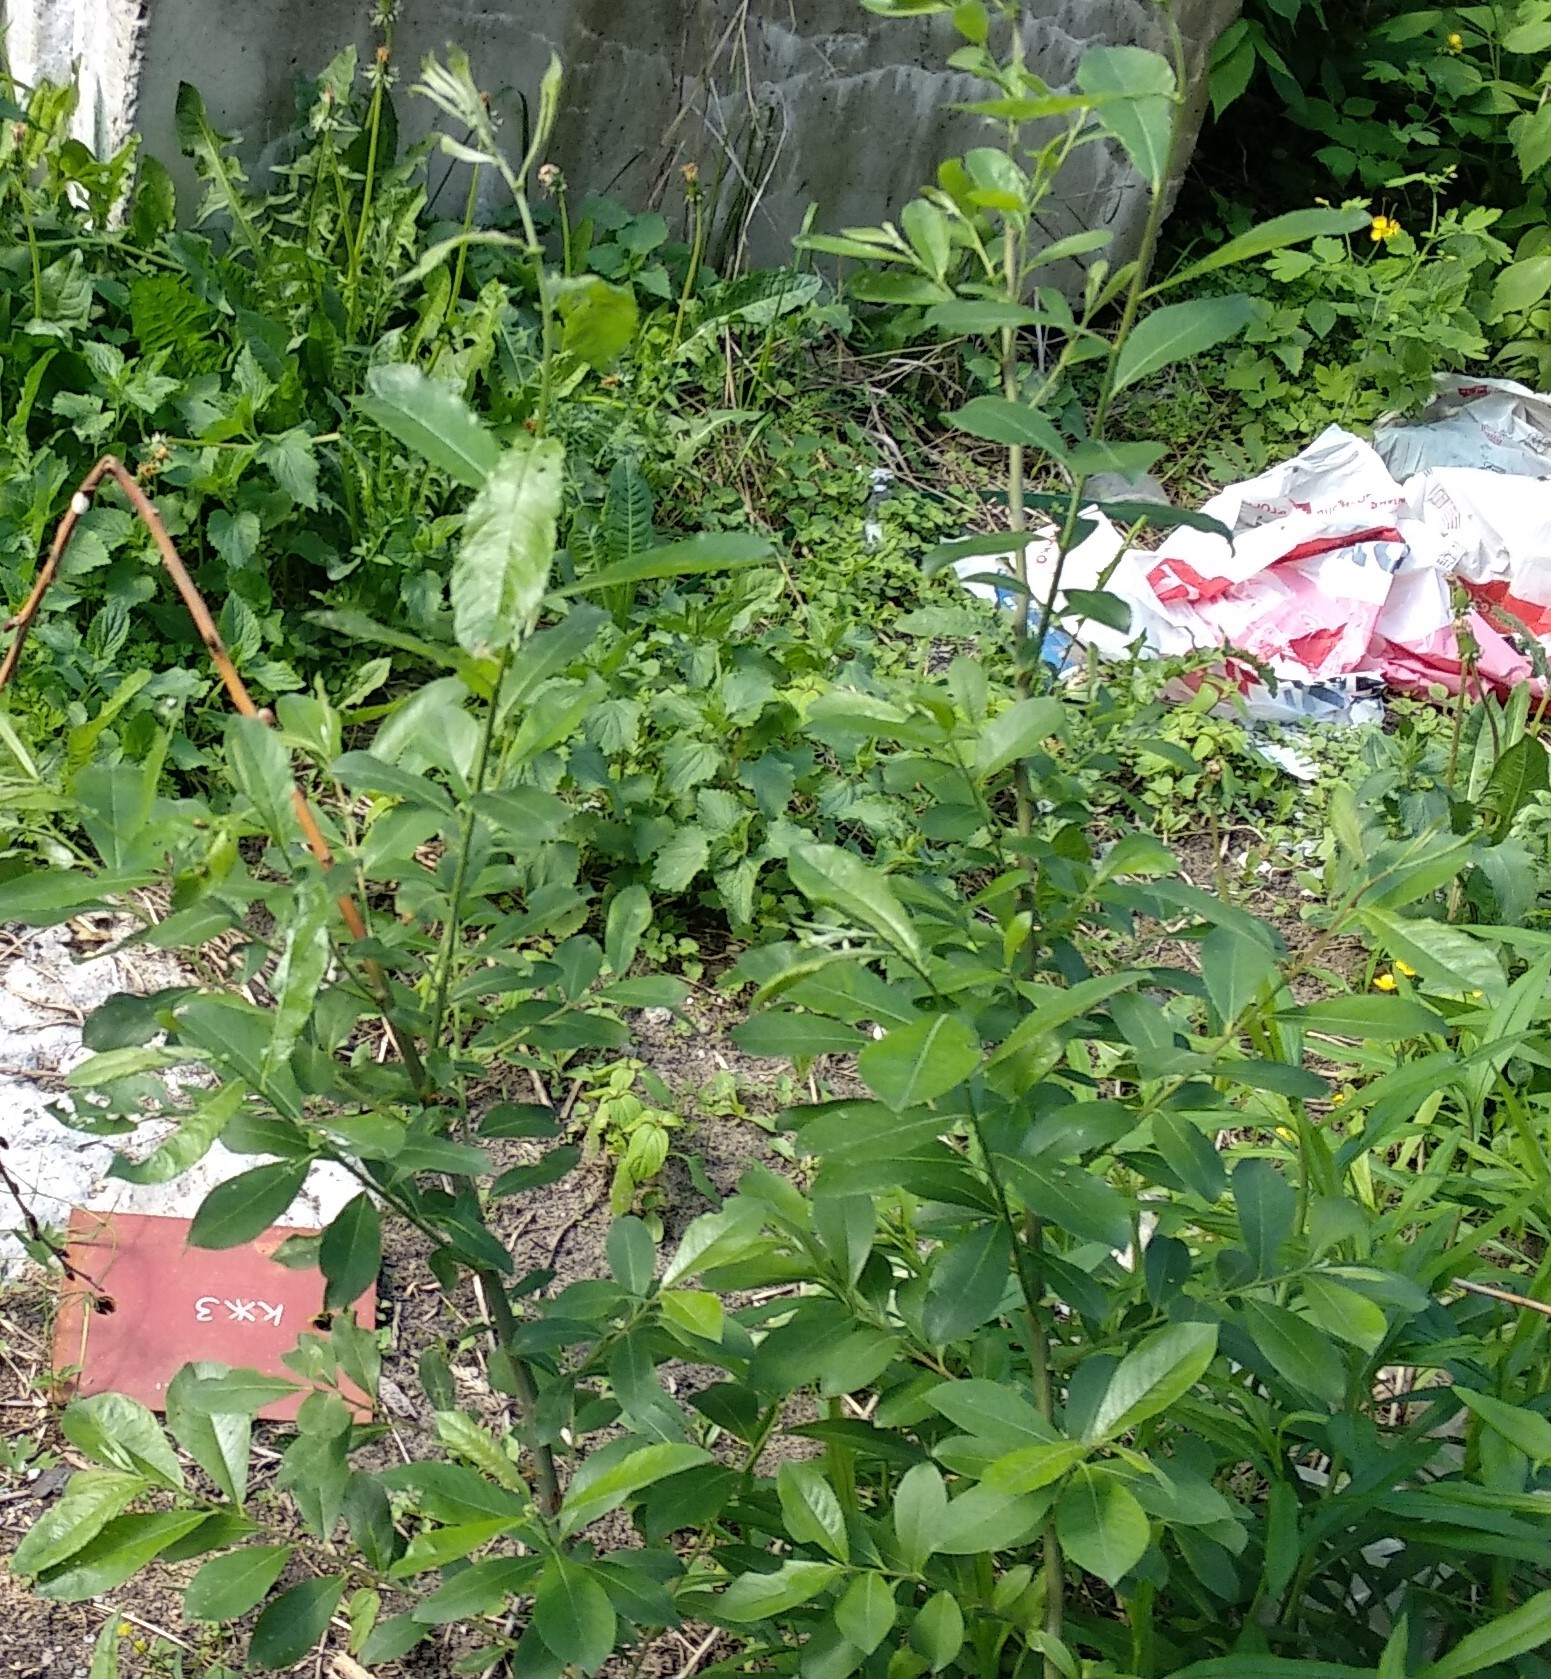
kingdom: Plantae
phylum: Tracheophyta
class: Magnoliopsida
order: Malpighiales
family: Salicaceae
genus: Salix
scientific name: Salix myrsinifolia
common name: Dark-leaved willow
